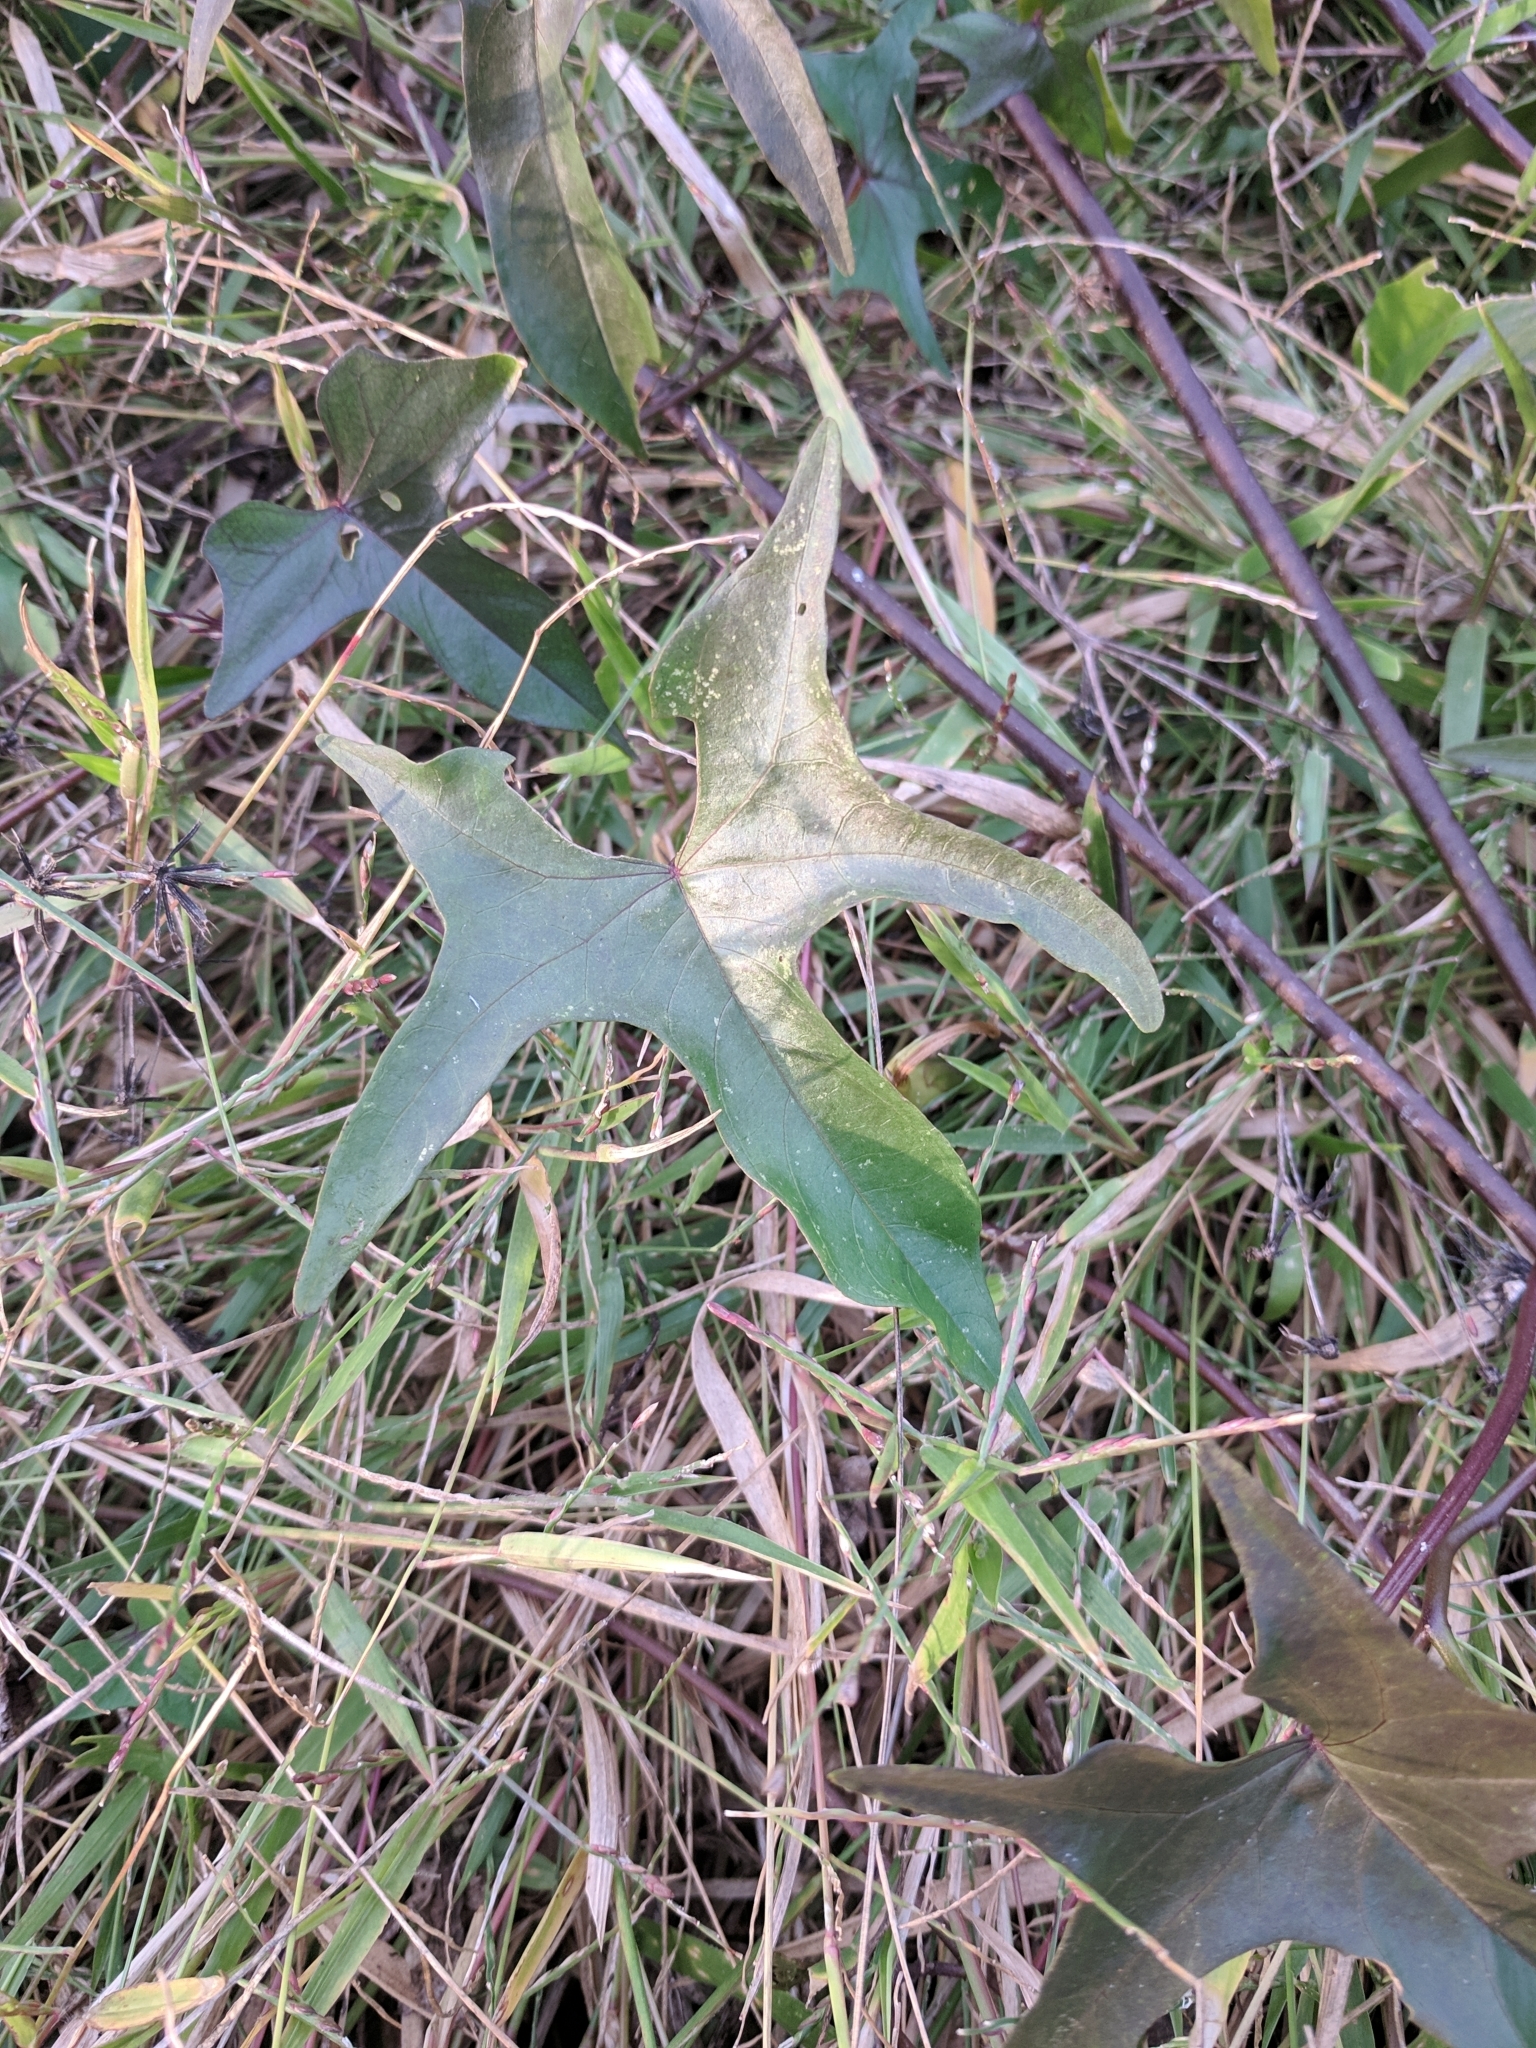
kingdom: Plantae
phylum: Tracheophyta
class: Magnoliopsida
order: Solanales
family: Convolvulaceae
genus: Ipomoea
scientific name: Ipomoea alba
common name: Moonflower
